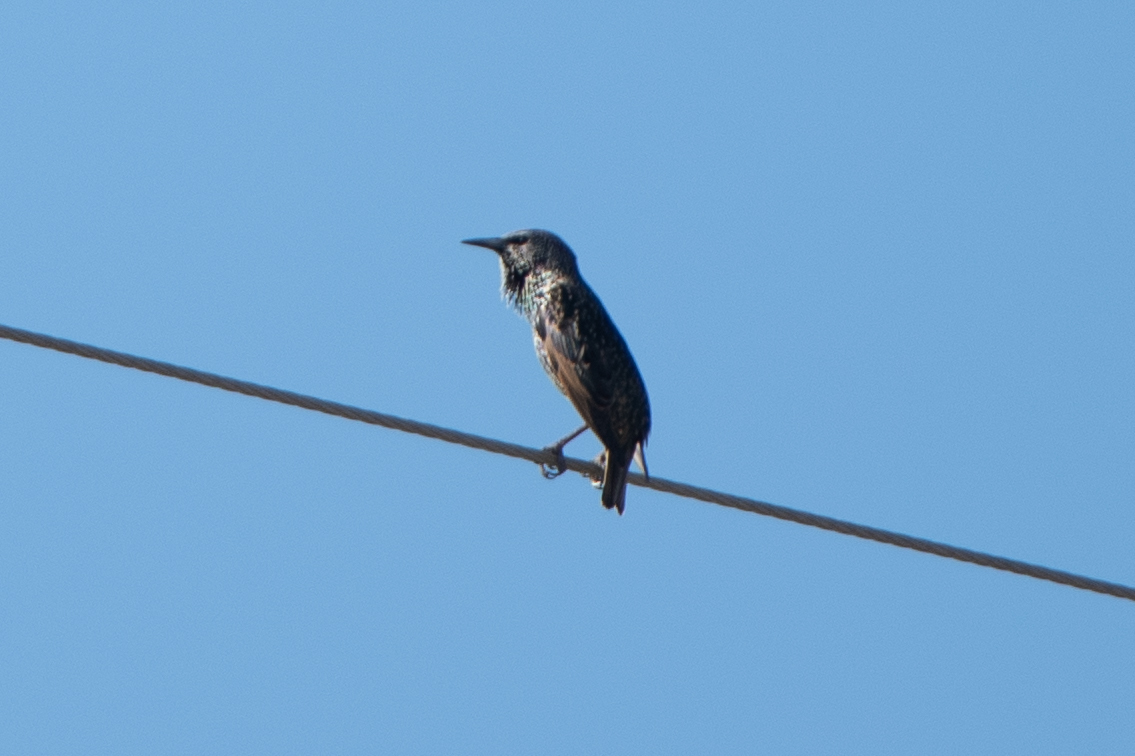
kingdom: Animalia
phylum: Chordata
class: Aves
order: Passeriformes
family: Sturnidae
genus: Sturnus
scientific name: Sturnus vulgaris
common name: Common starling
